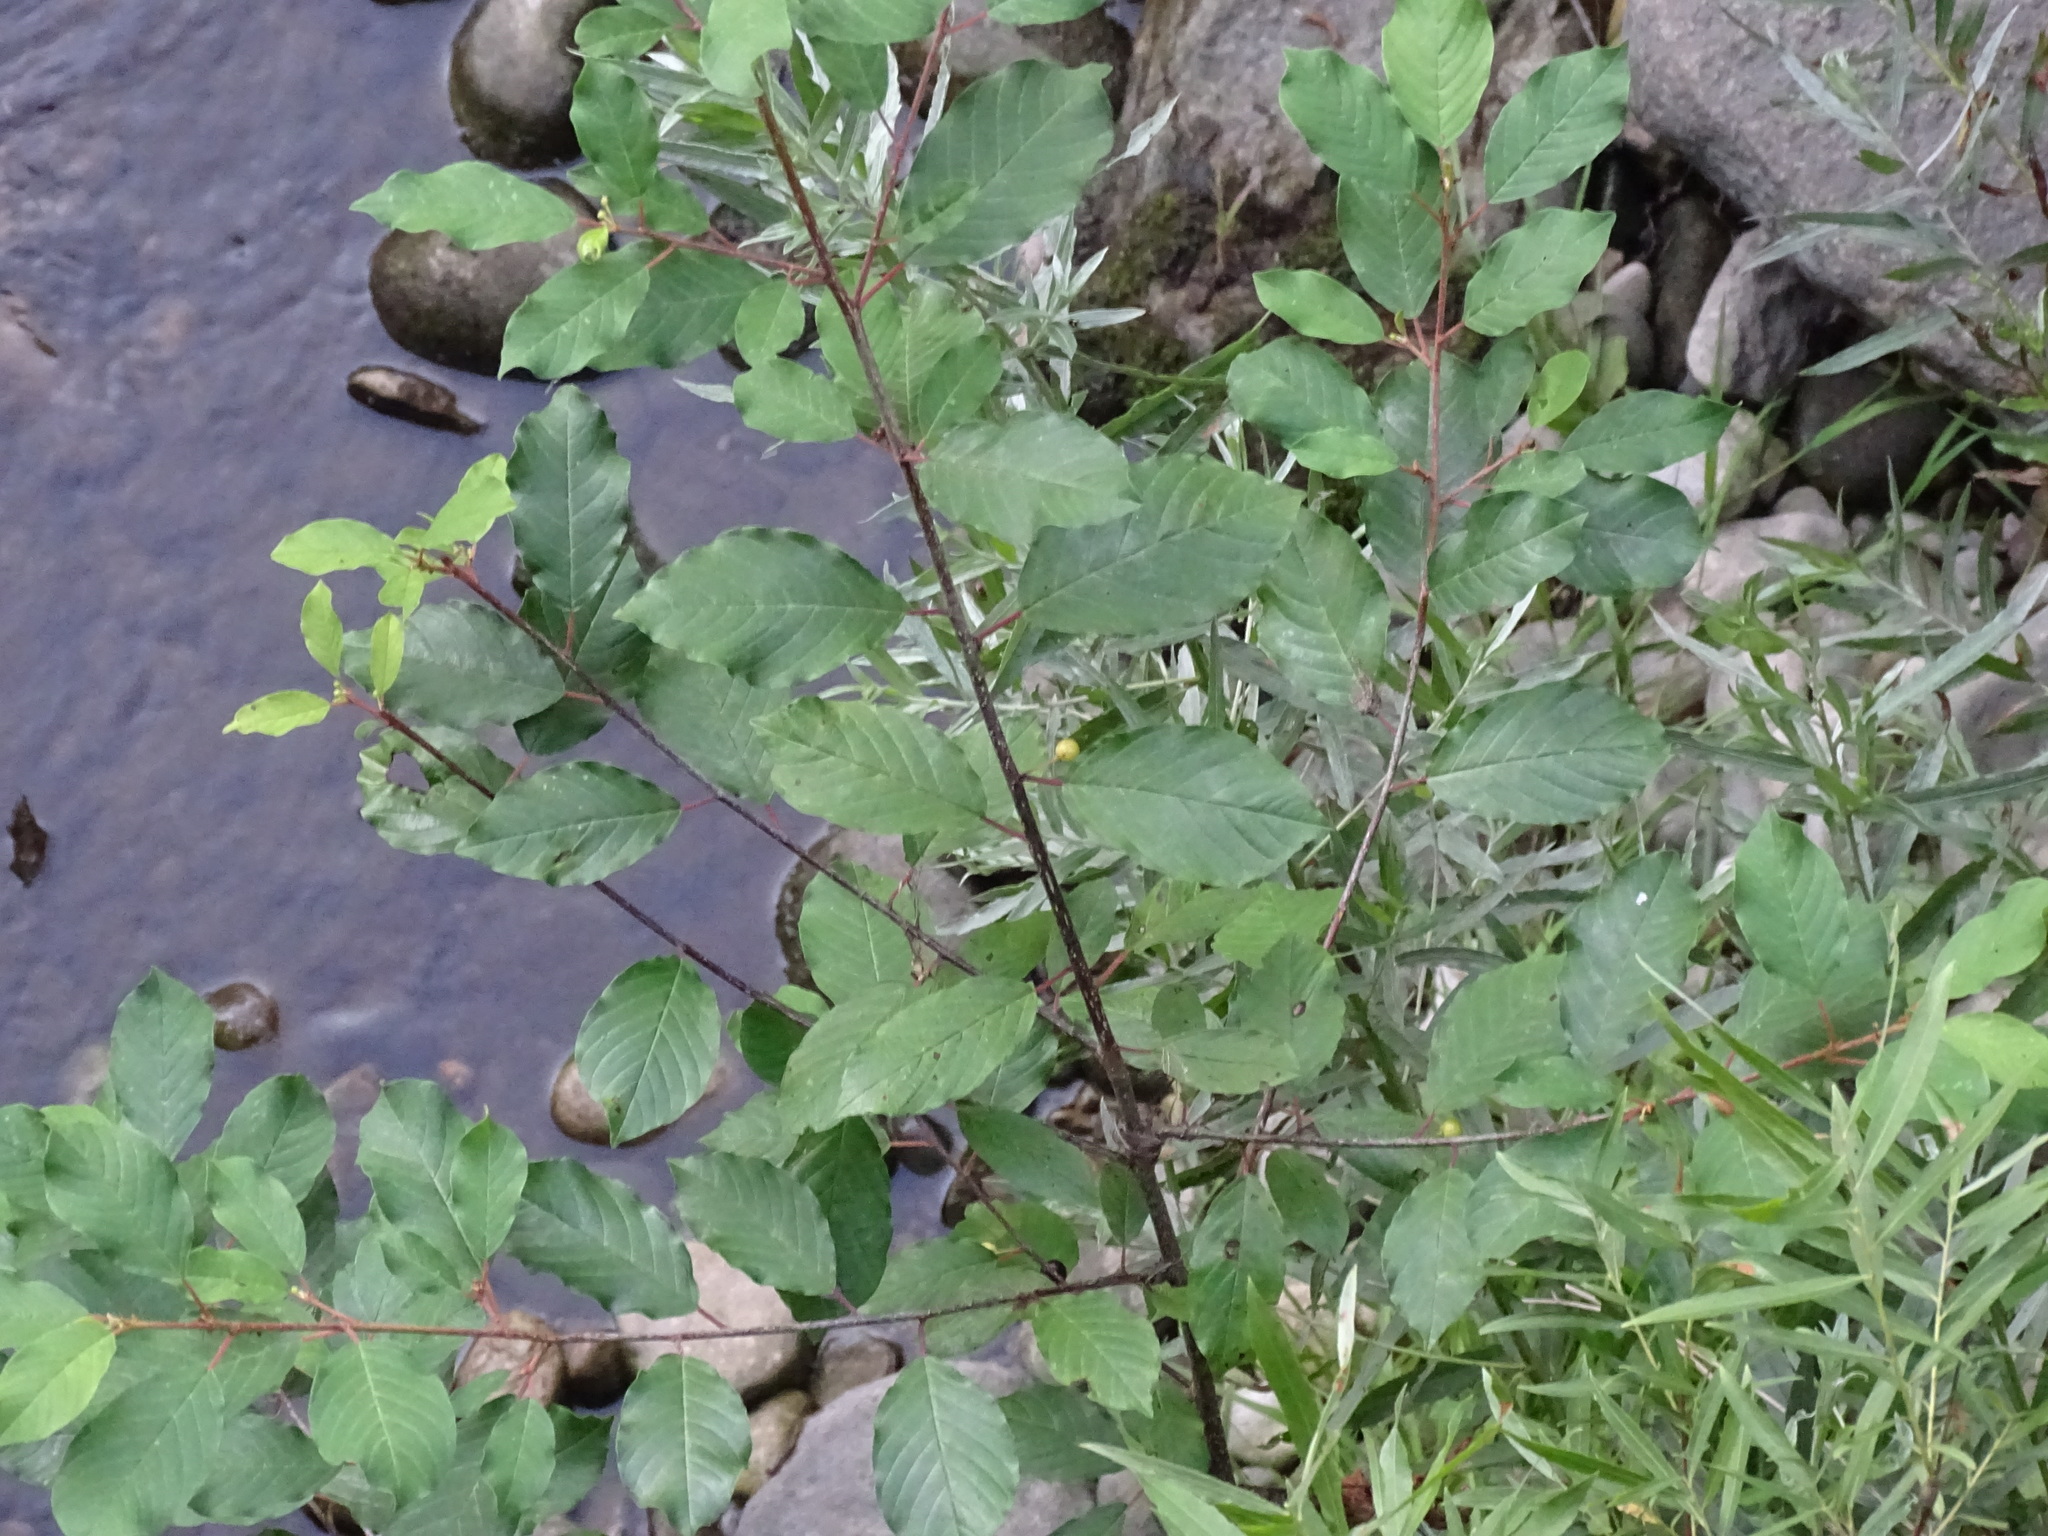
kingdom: Plantae
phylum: Tracheophyta
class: Magnoliopsida
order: Rosales
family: Rhamnaceae
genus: Frangula
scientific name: Frangula alnus
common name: Alder buckthorn
